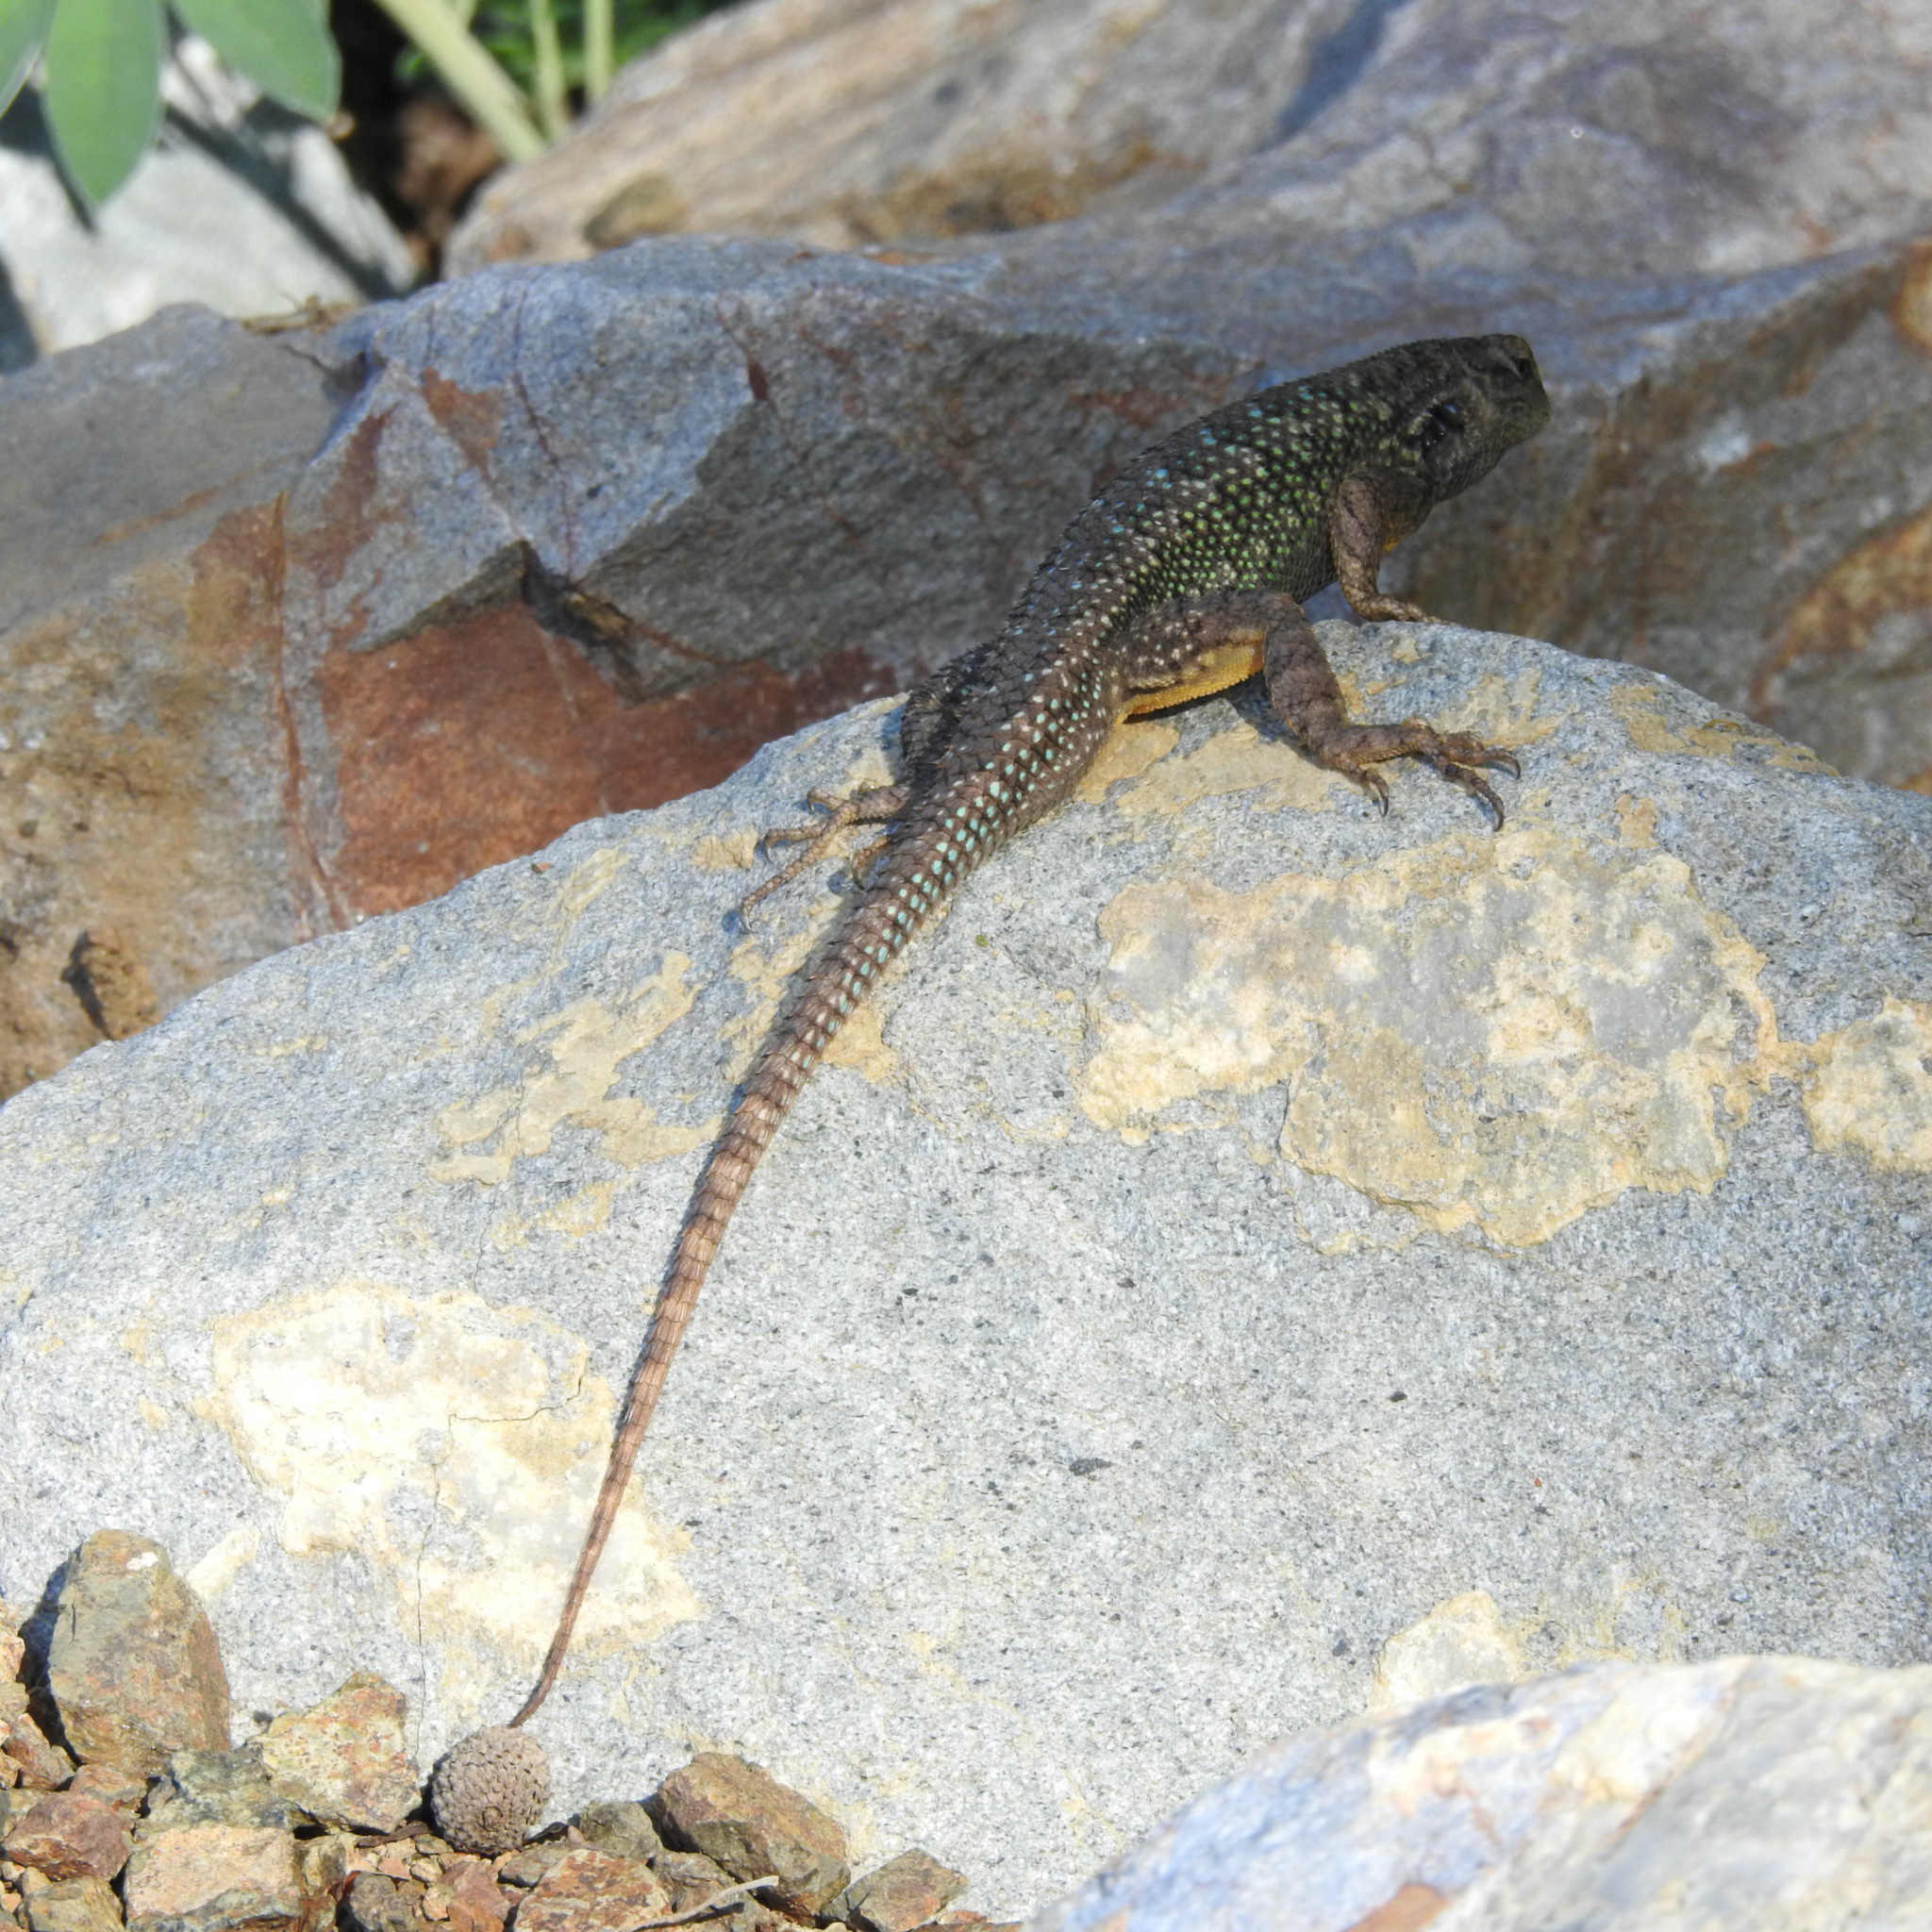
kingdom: Animalia
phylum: Chordata
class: Squamata
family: Phrynosomatidae
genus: Sceloporus
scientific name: Sceloporus occidentalis
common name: Western fence lizard
